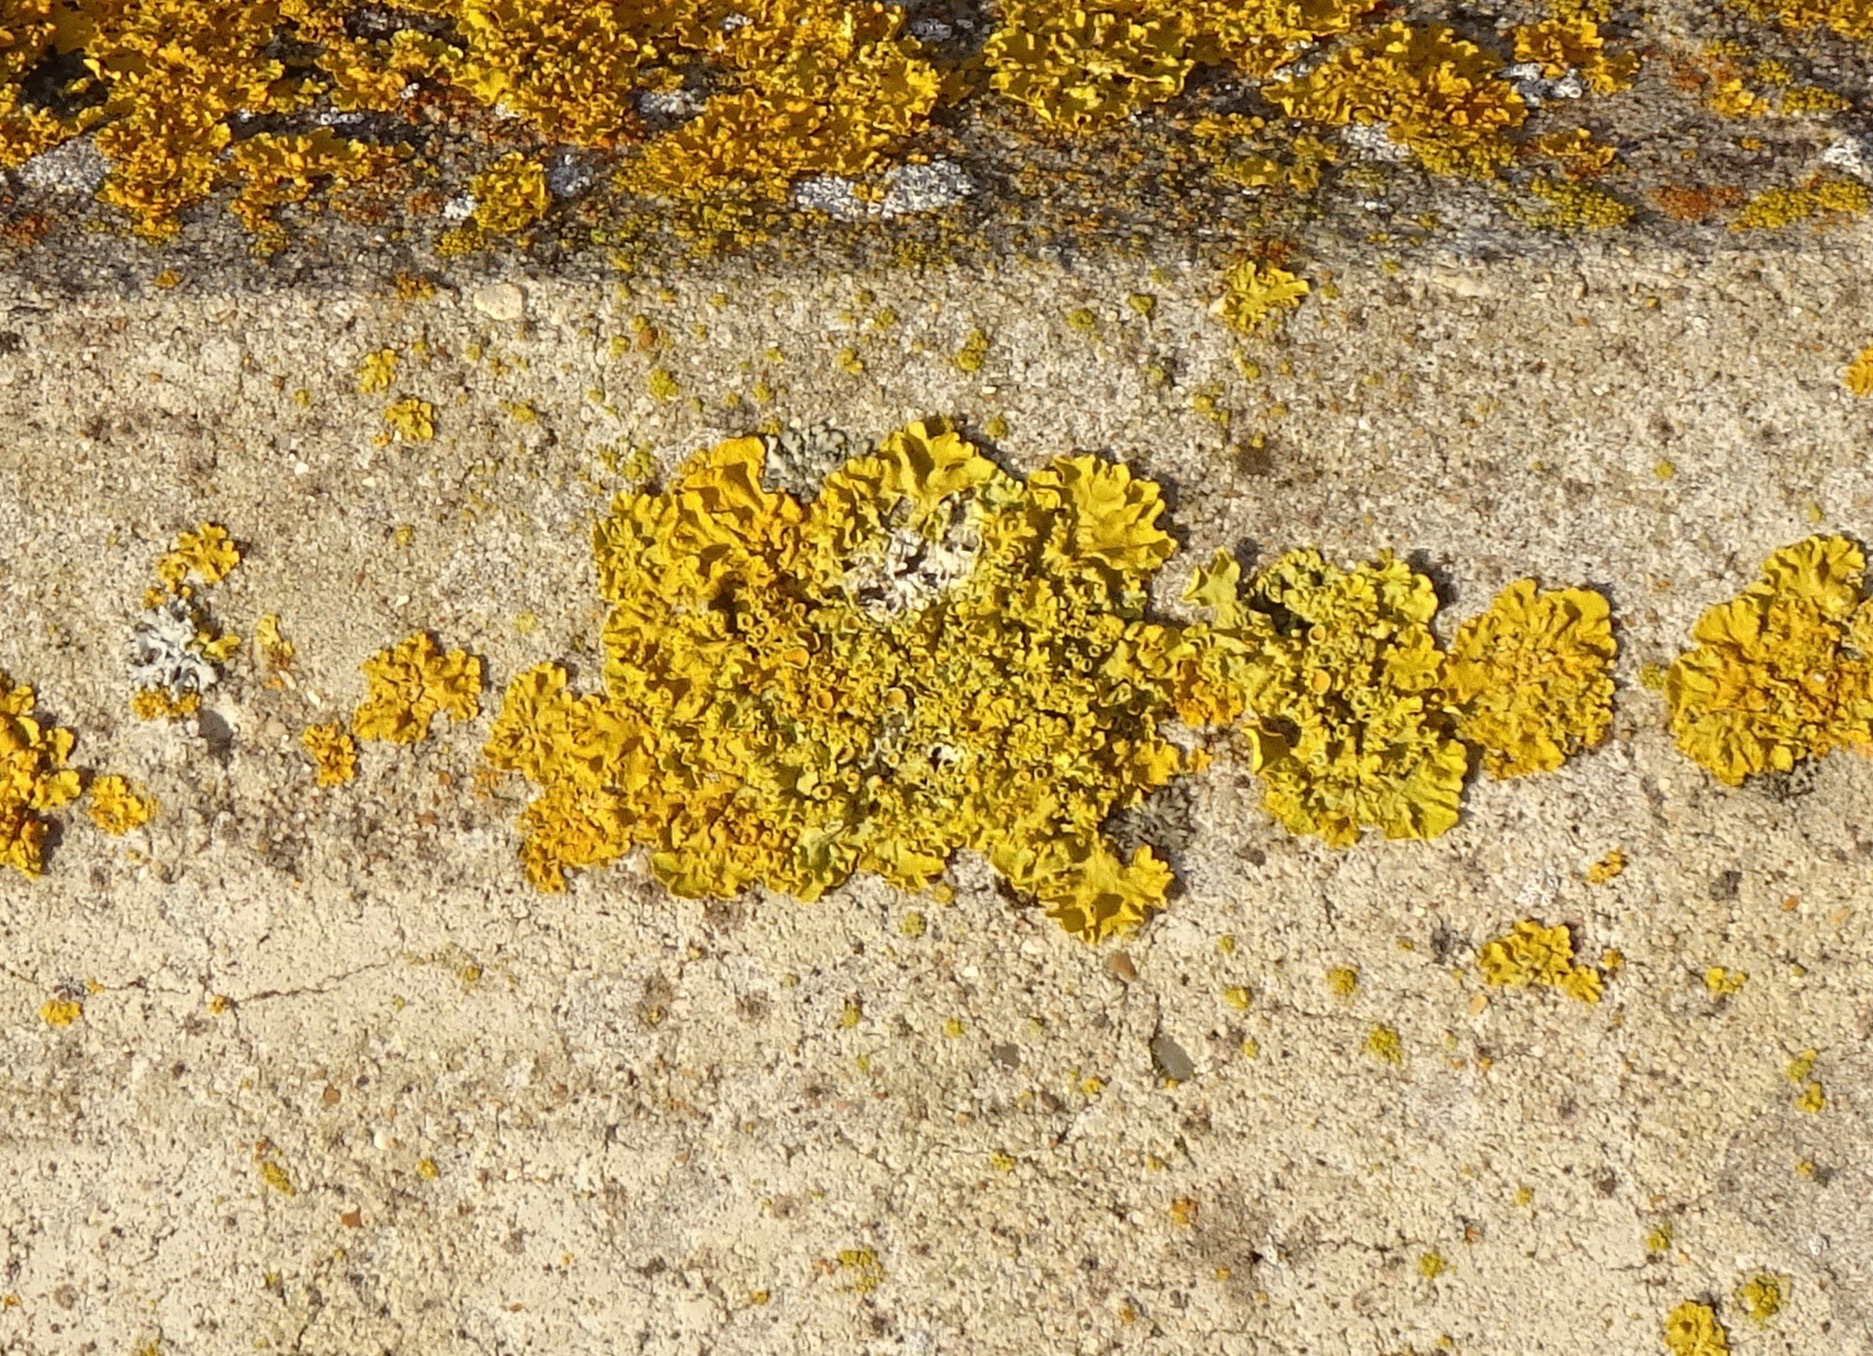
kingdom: Fungi
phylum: Ascomycota
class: Lecanoromycetes
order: Teloschistales
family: Teloschistaceae
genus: Xanthoria
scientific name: Xanthoria parietina
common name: Common orange lichen
